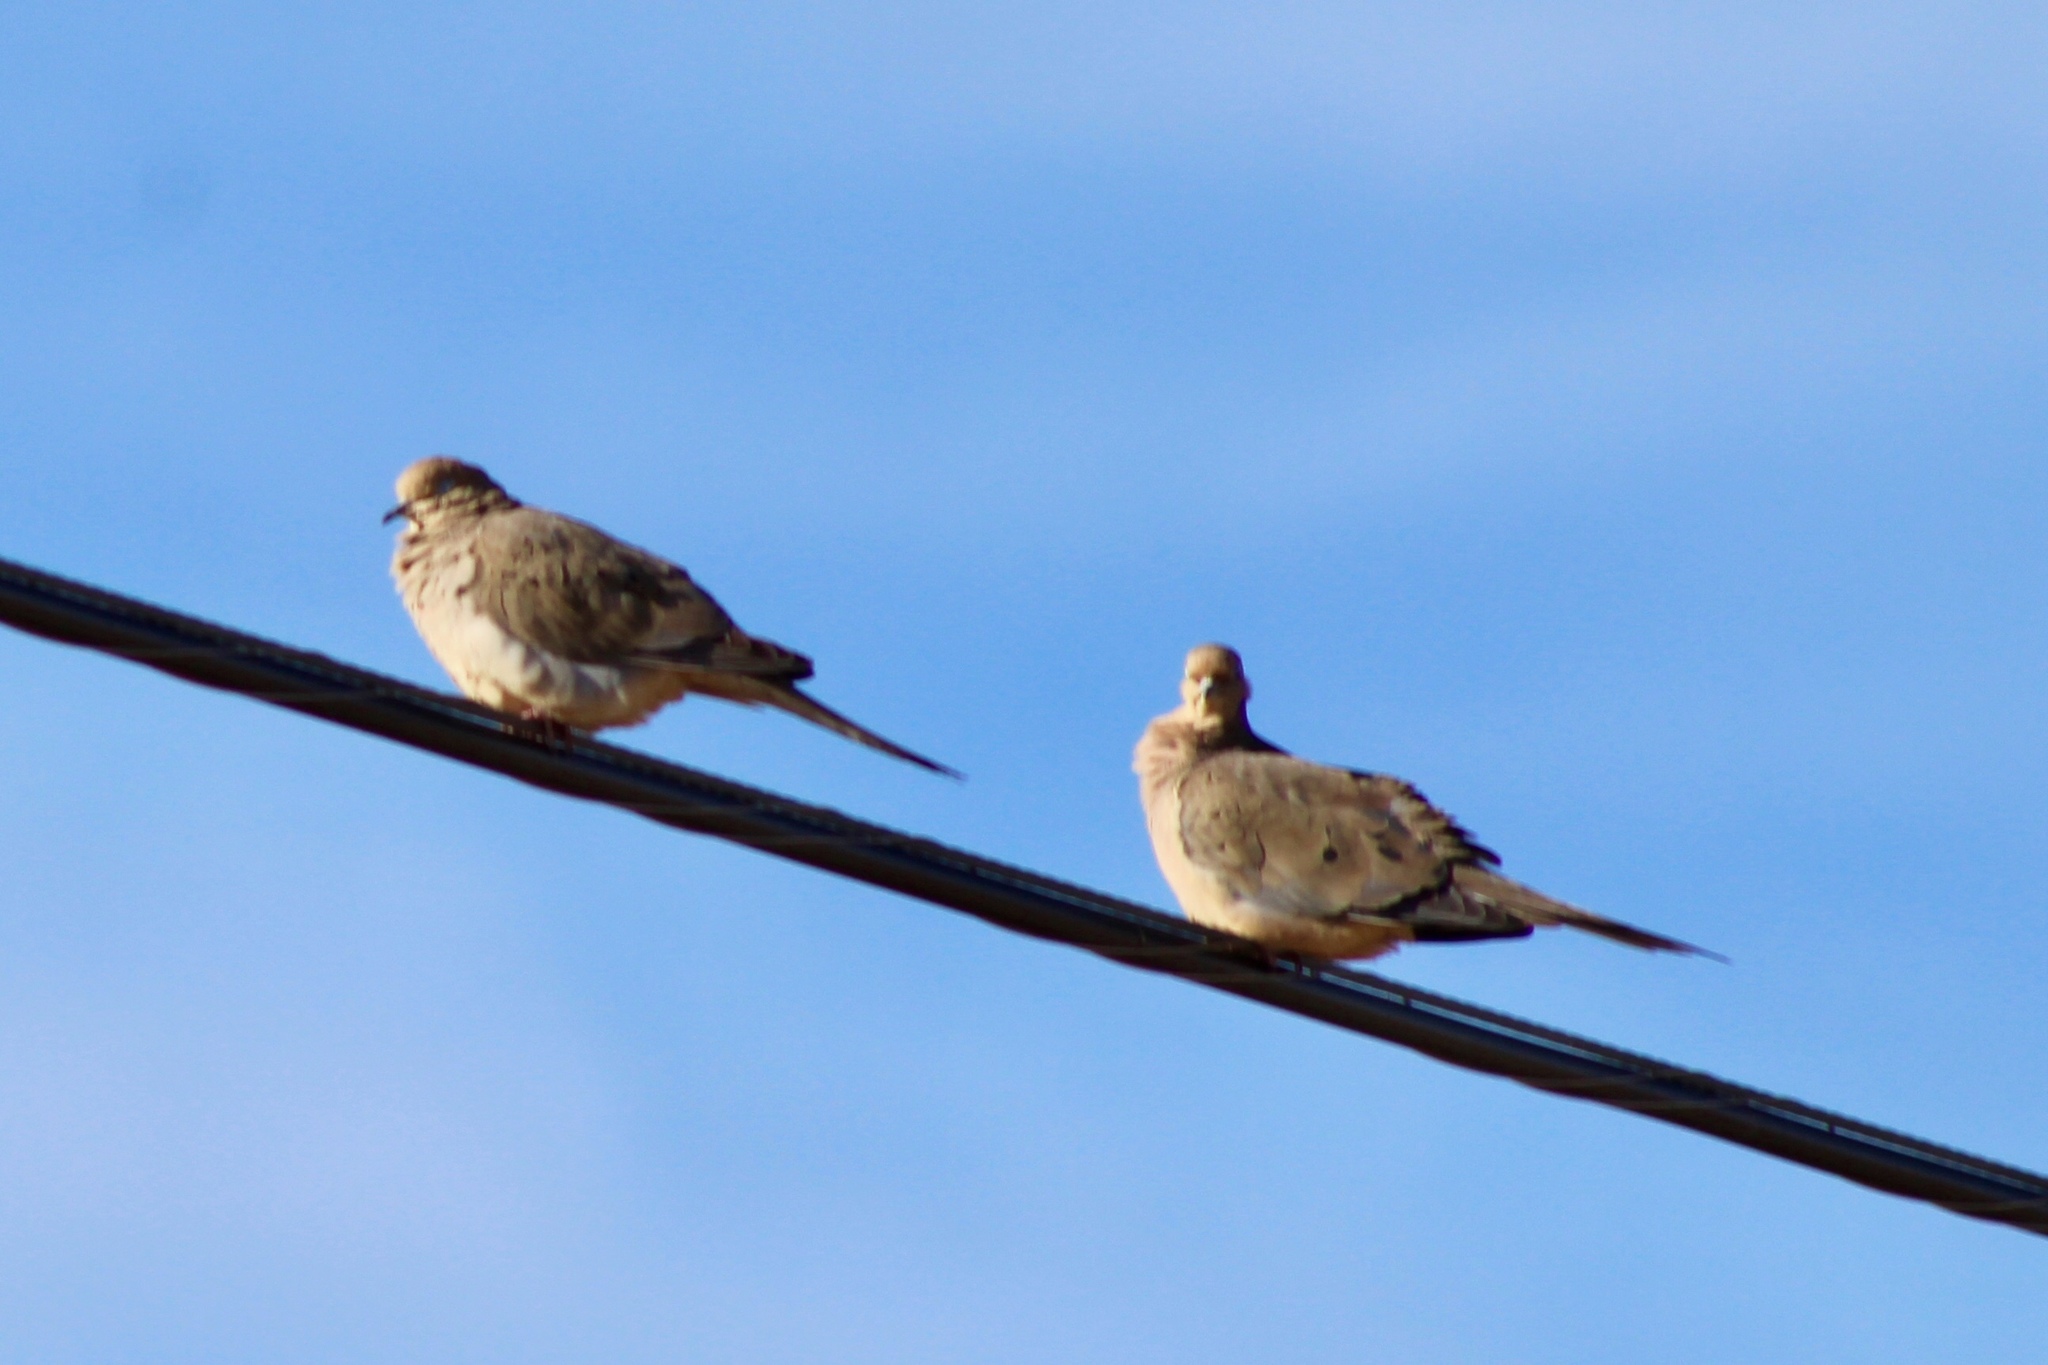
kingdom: Animalia
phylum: Chordata
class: Aves
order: Columbiformes
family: Columbidae
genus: Zenaida
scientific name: Zenaida macroura
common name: Mourning dove
